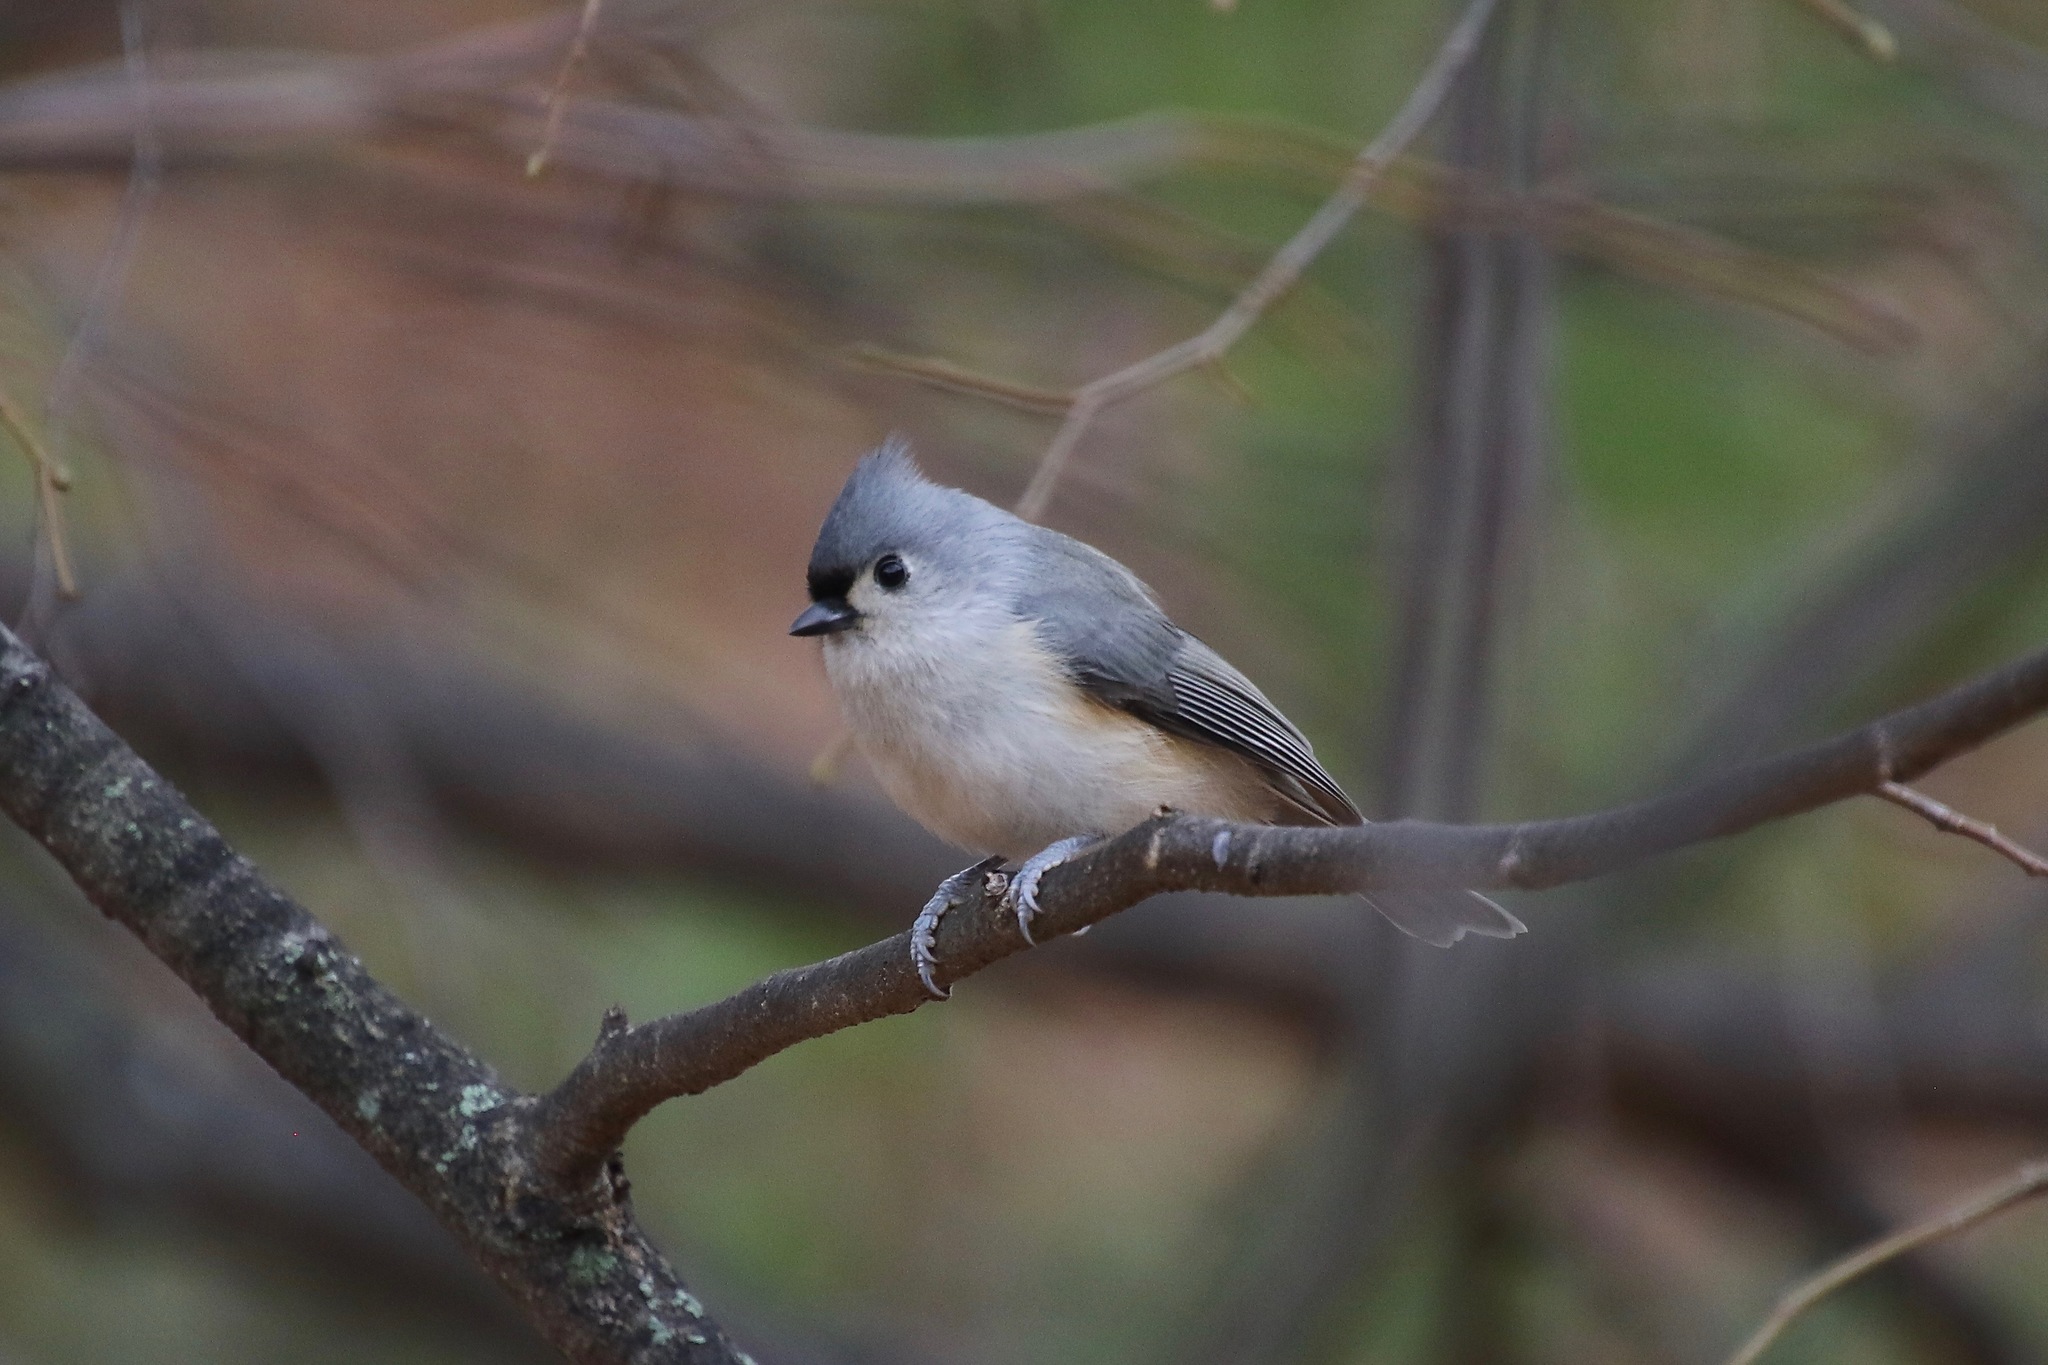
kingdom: Animalia
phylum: Chordata
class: Aves
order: Passeriformes
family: Paridae
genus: Baeolophus
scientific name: Baeolophus bicolor
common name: Tufted titmouse
